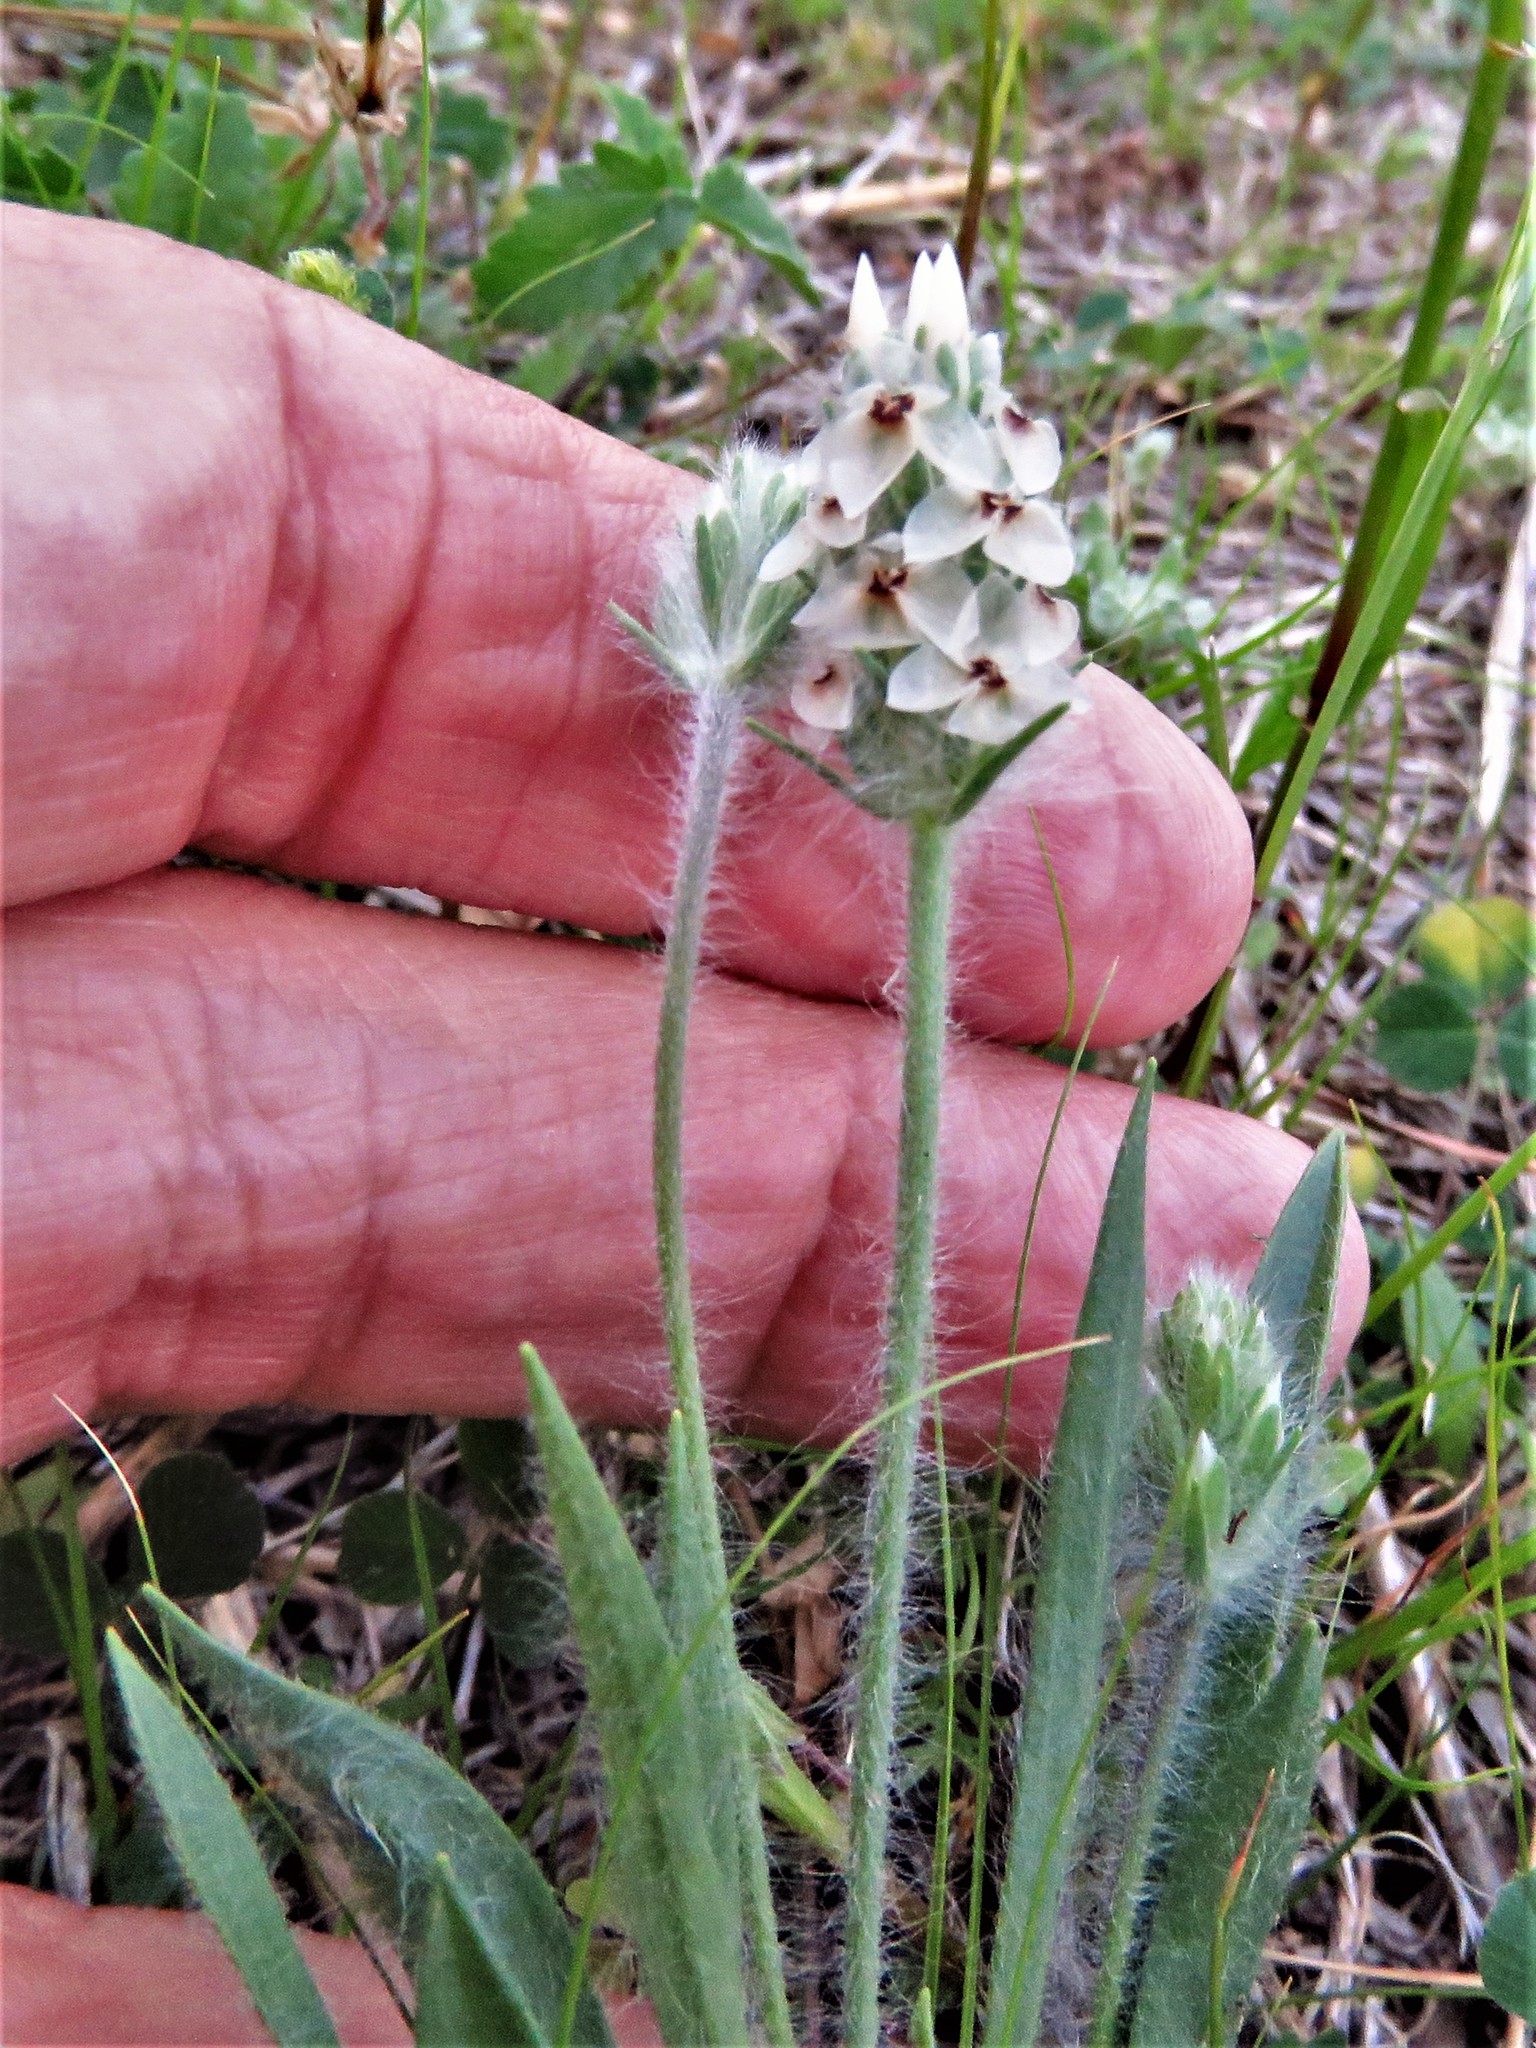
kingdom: Plantae
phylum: Tracheophyta
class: Magnoliopsida
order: Lamiales
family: Plantaginaceae
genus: Plantago
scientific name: Plantago helleri
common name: Heller's plantain
